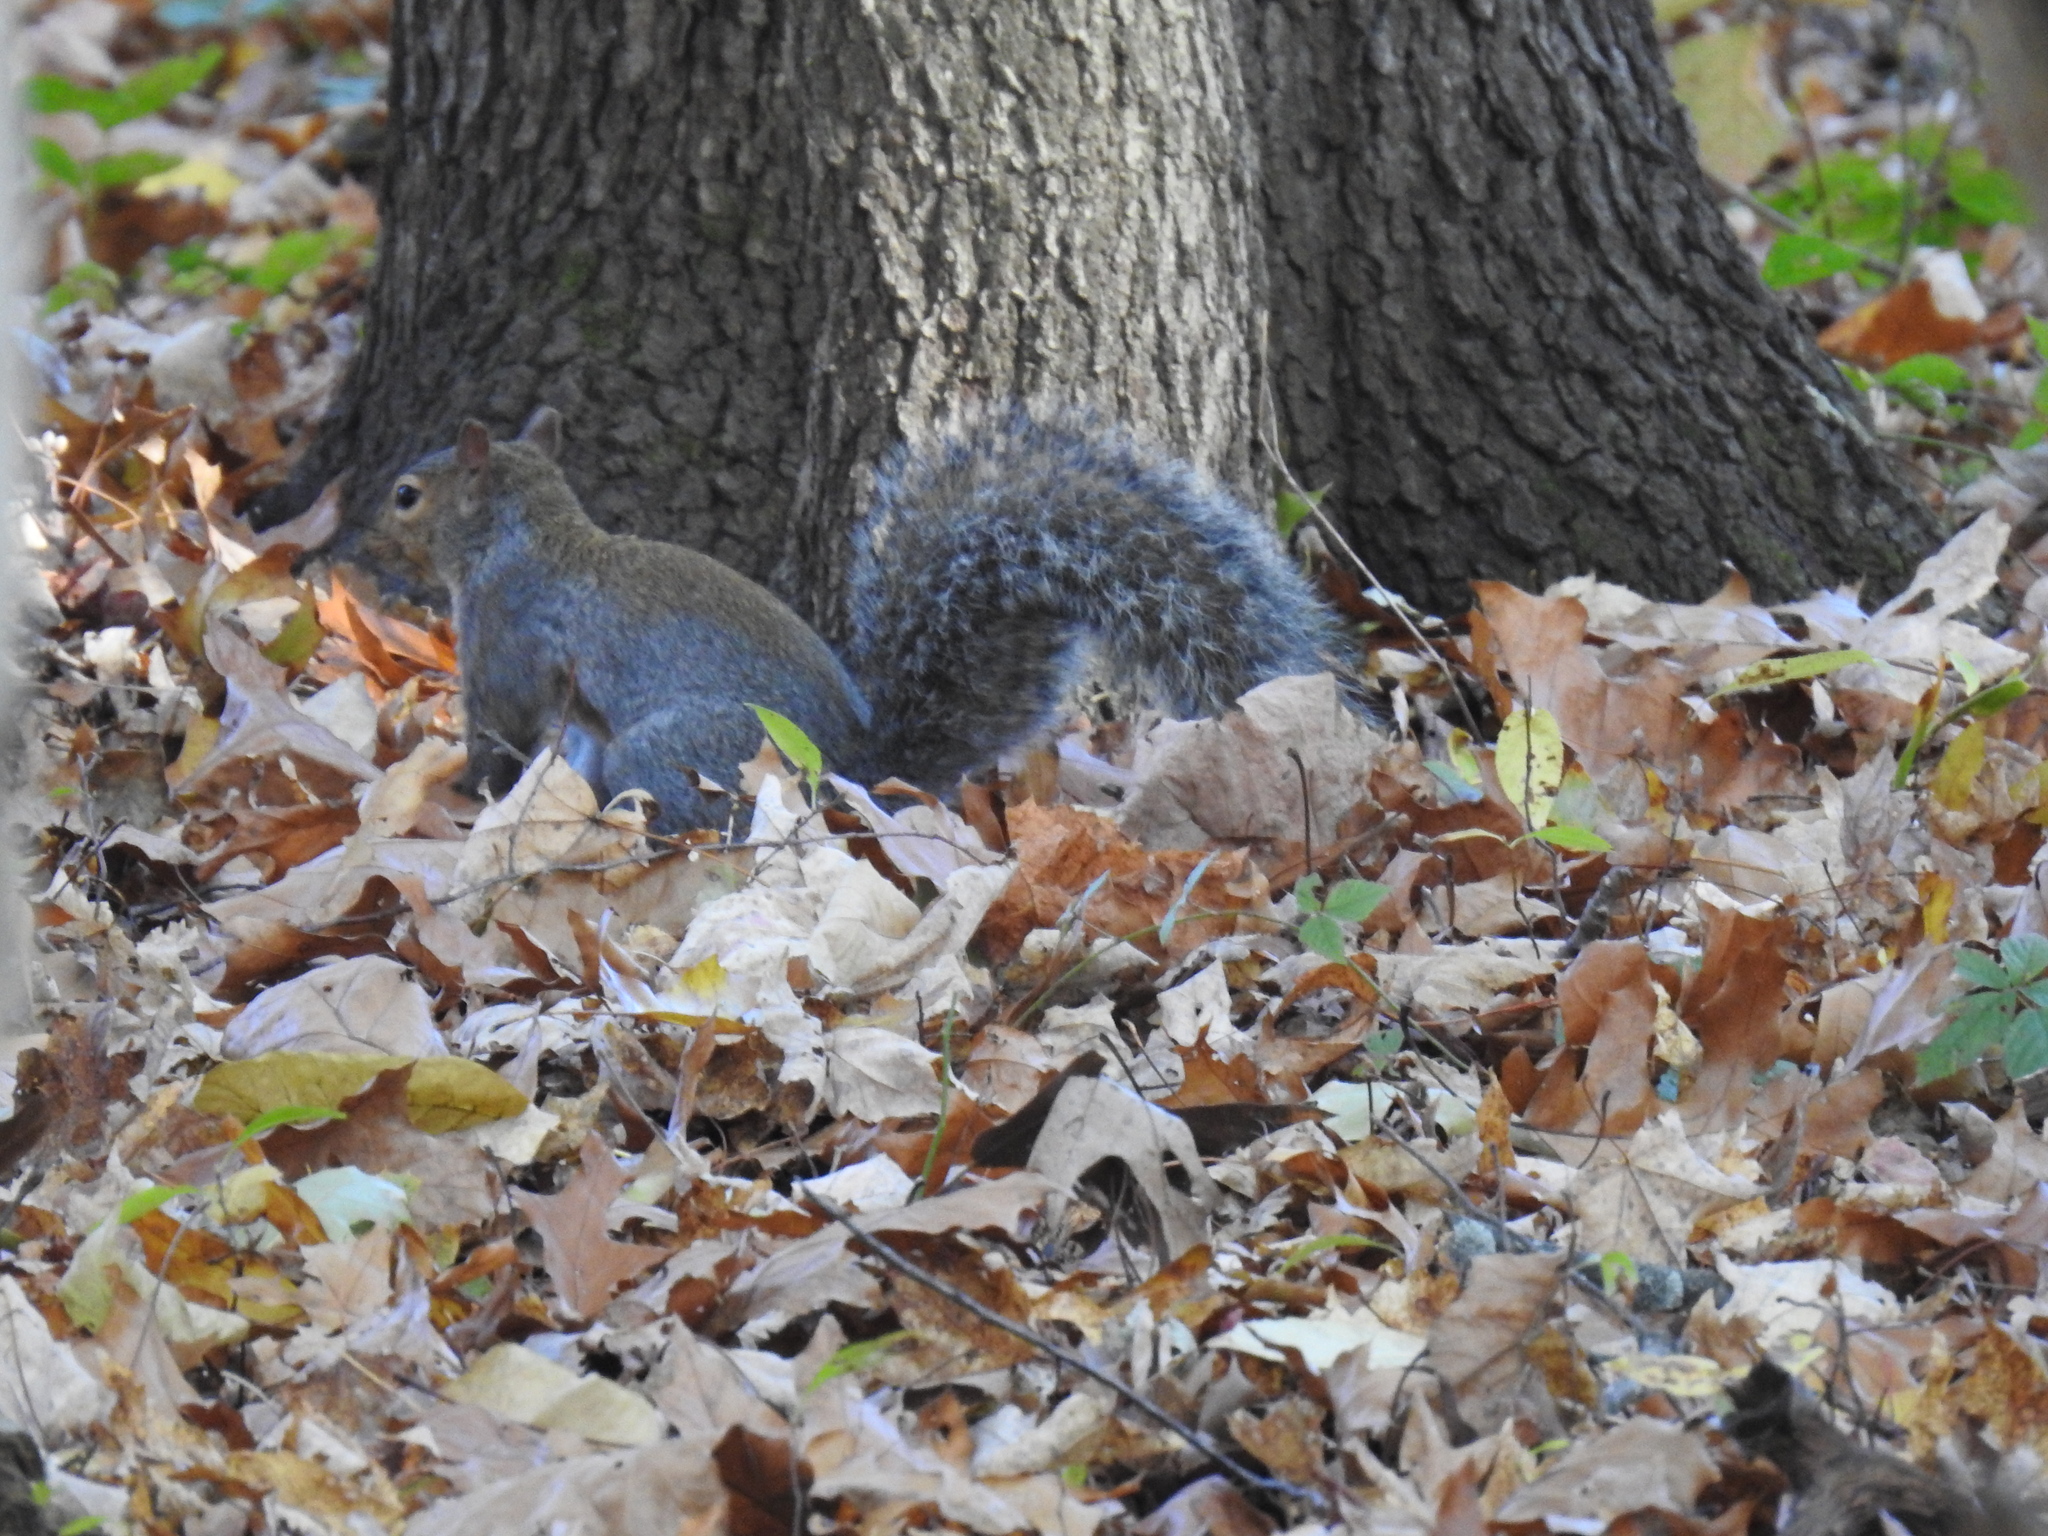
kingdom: Animalia
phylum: Chordata
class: Mammalia
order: Rodentia
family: Sciuridae
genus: Sciurus
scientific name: Sciurus carolinensis
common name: Eastern gray squirrel
